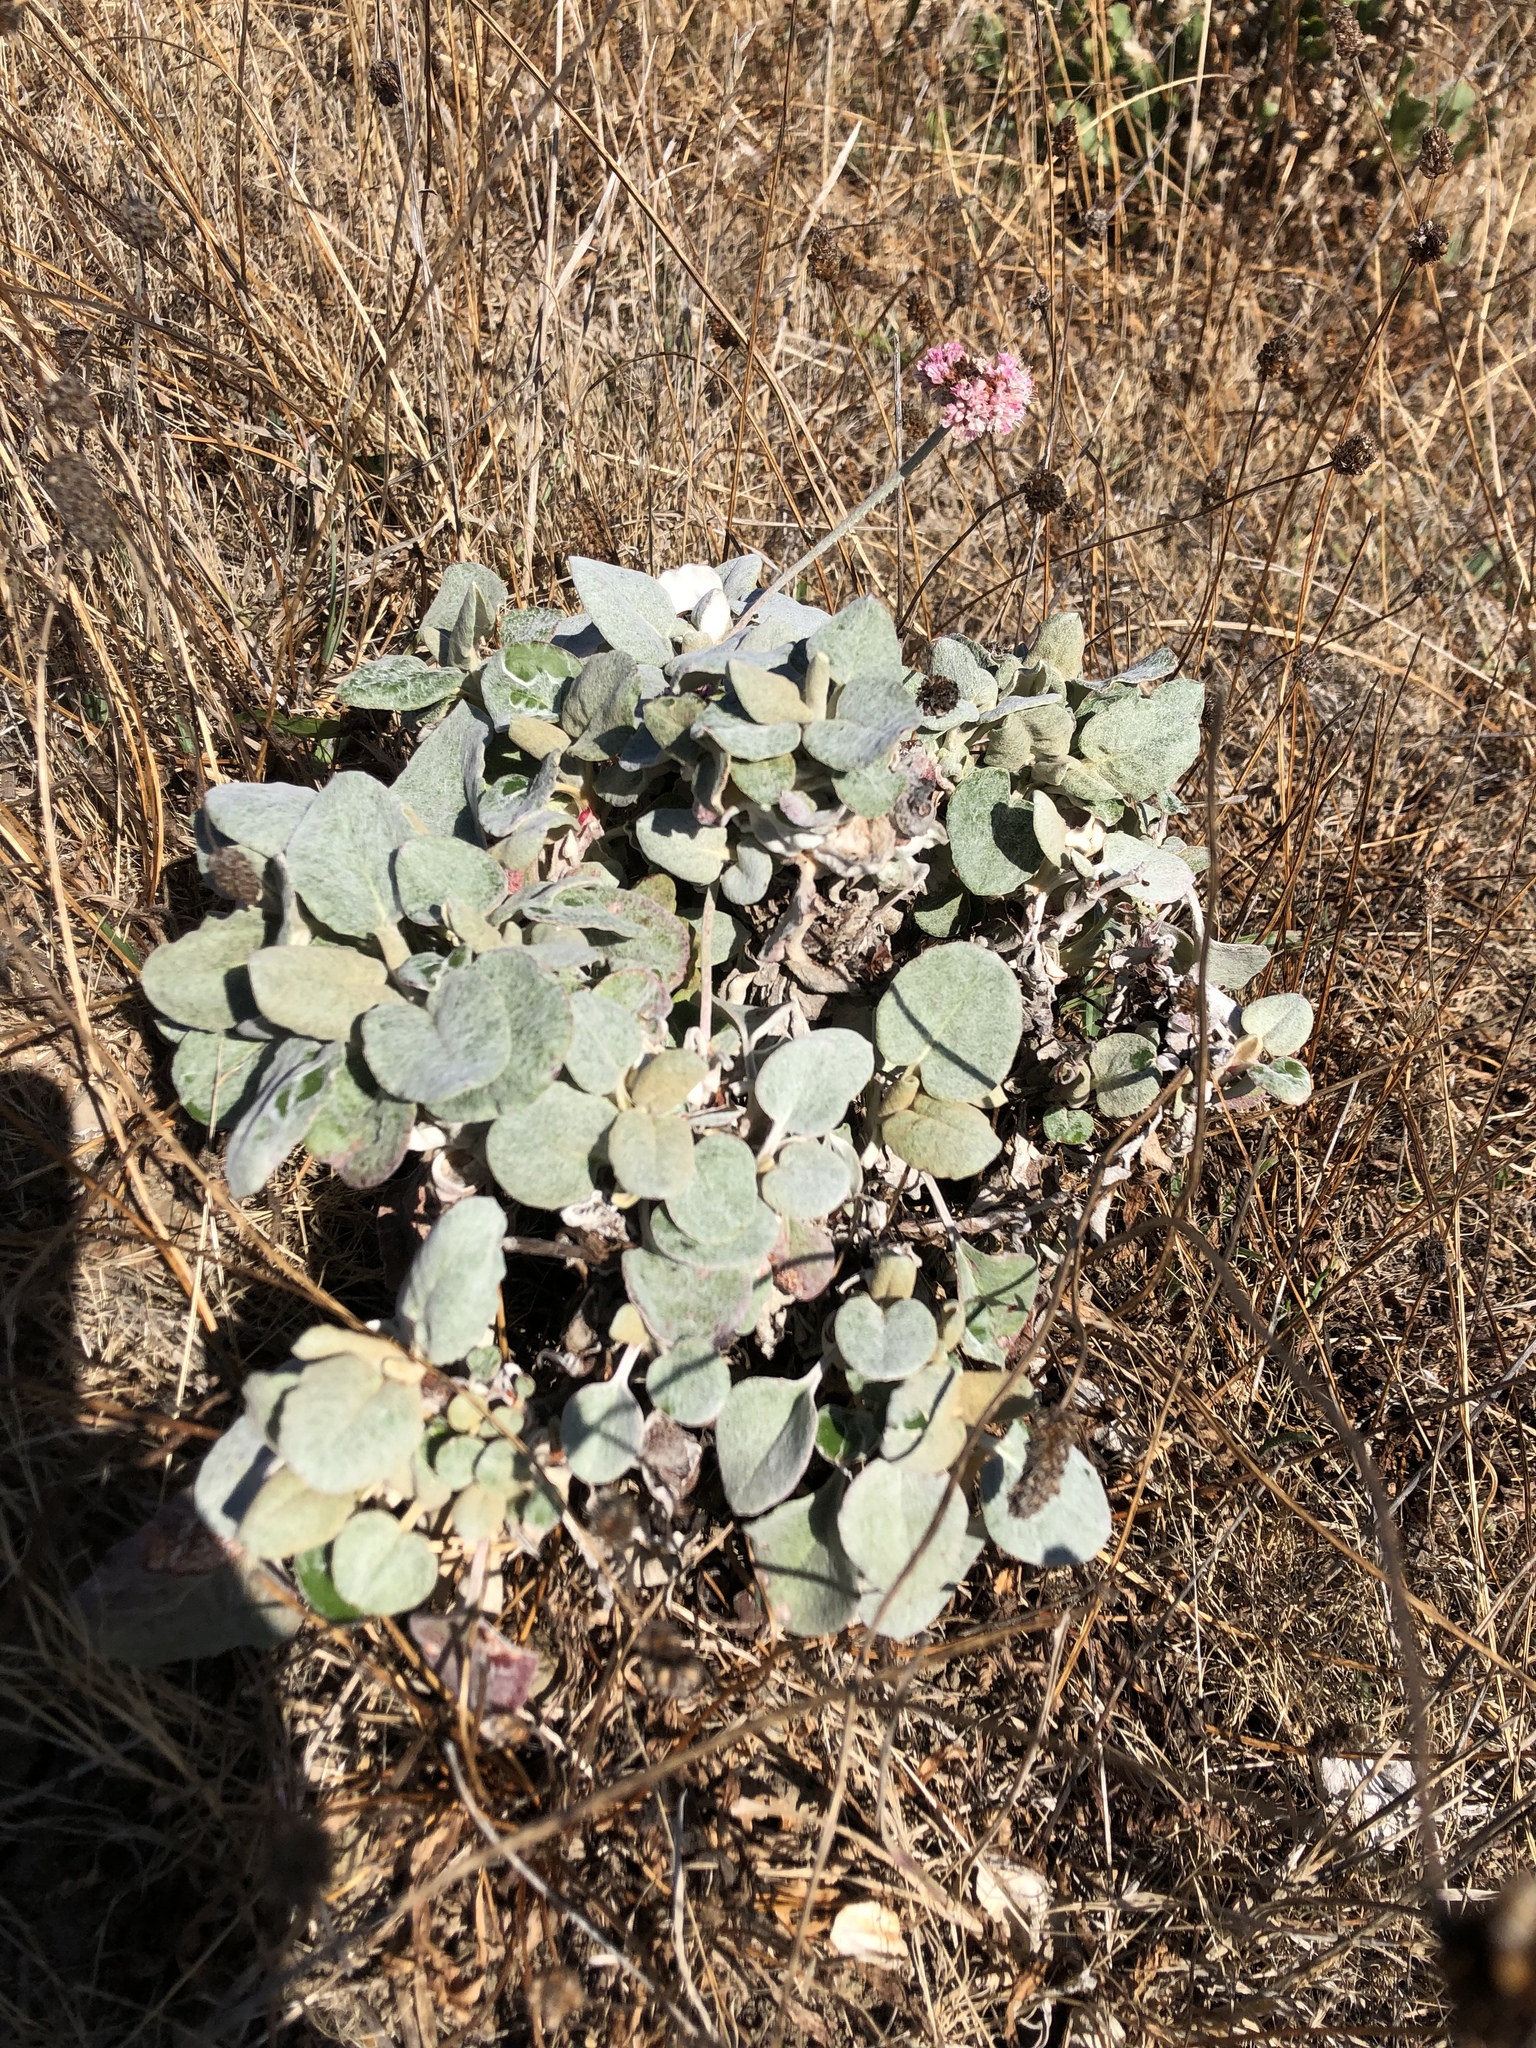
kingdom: Plantae
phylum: Tracheophyta
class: Magnoliopsida
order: Caryophyllales
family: Polygonaceae
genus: Eriogonum
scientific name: Eriogonum latifolium
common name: Seaside wild buckwheat
